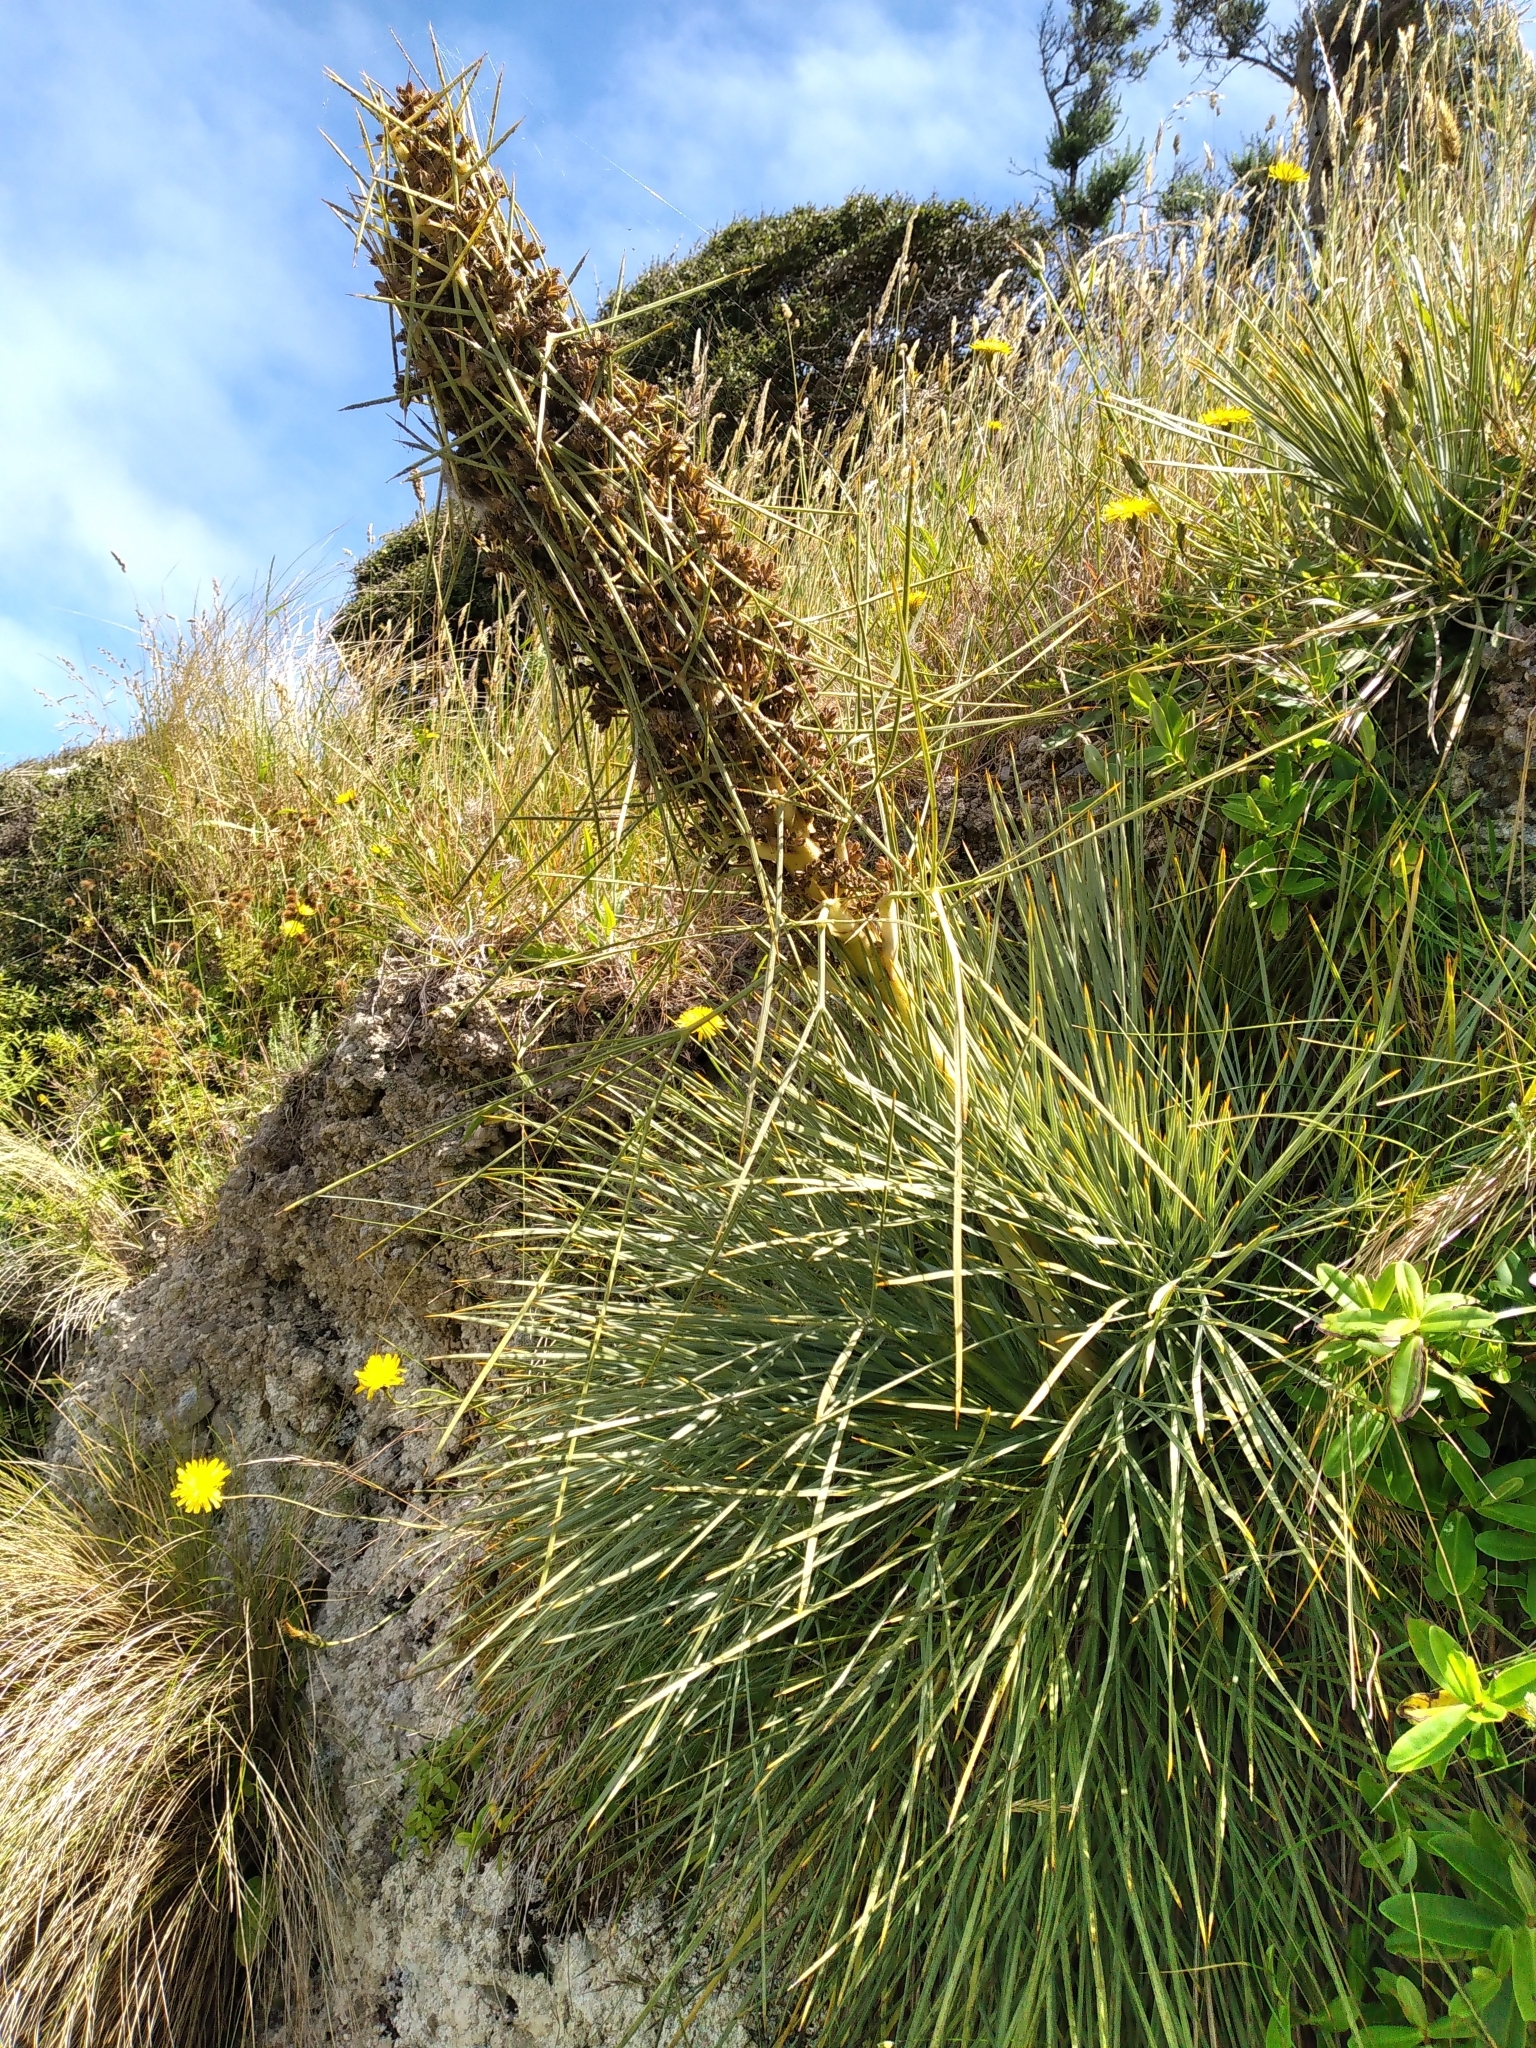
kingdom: Plantae
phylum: Tracheophyta
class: Magnoliopsida
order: Apiales
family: Apiaceae
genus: Aciphylla
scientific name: Aciphylla squarrosa
